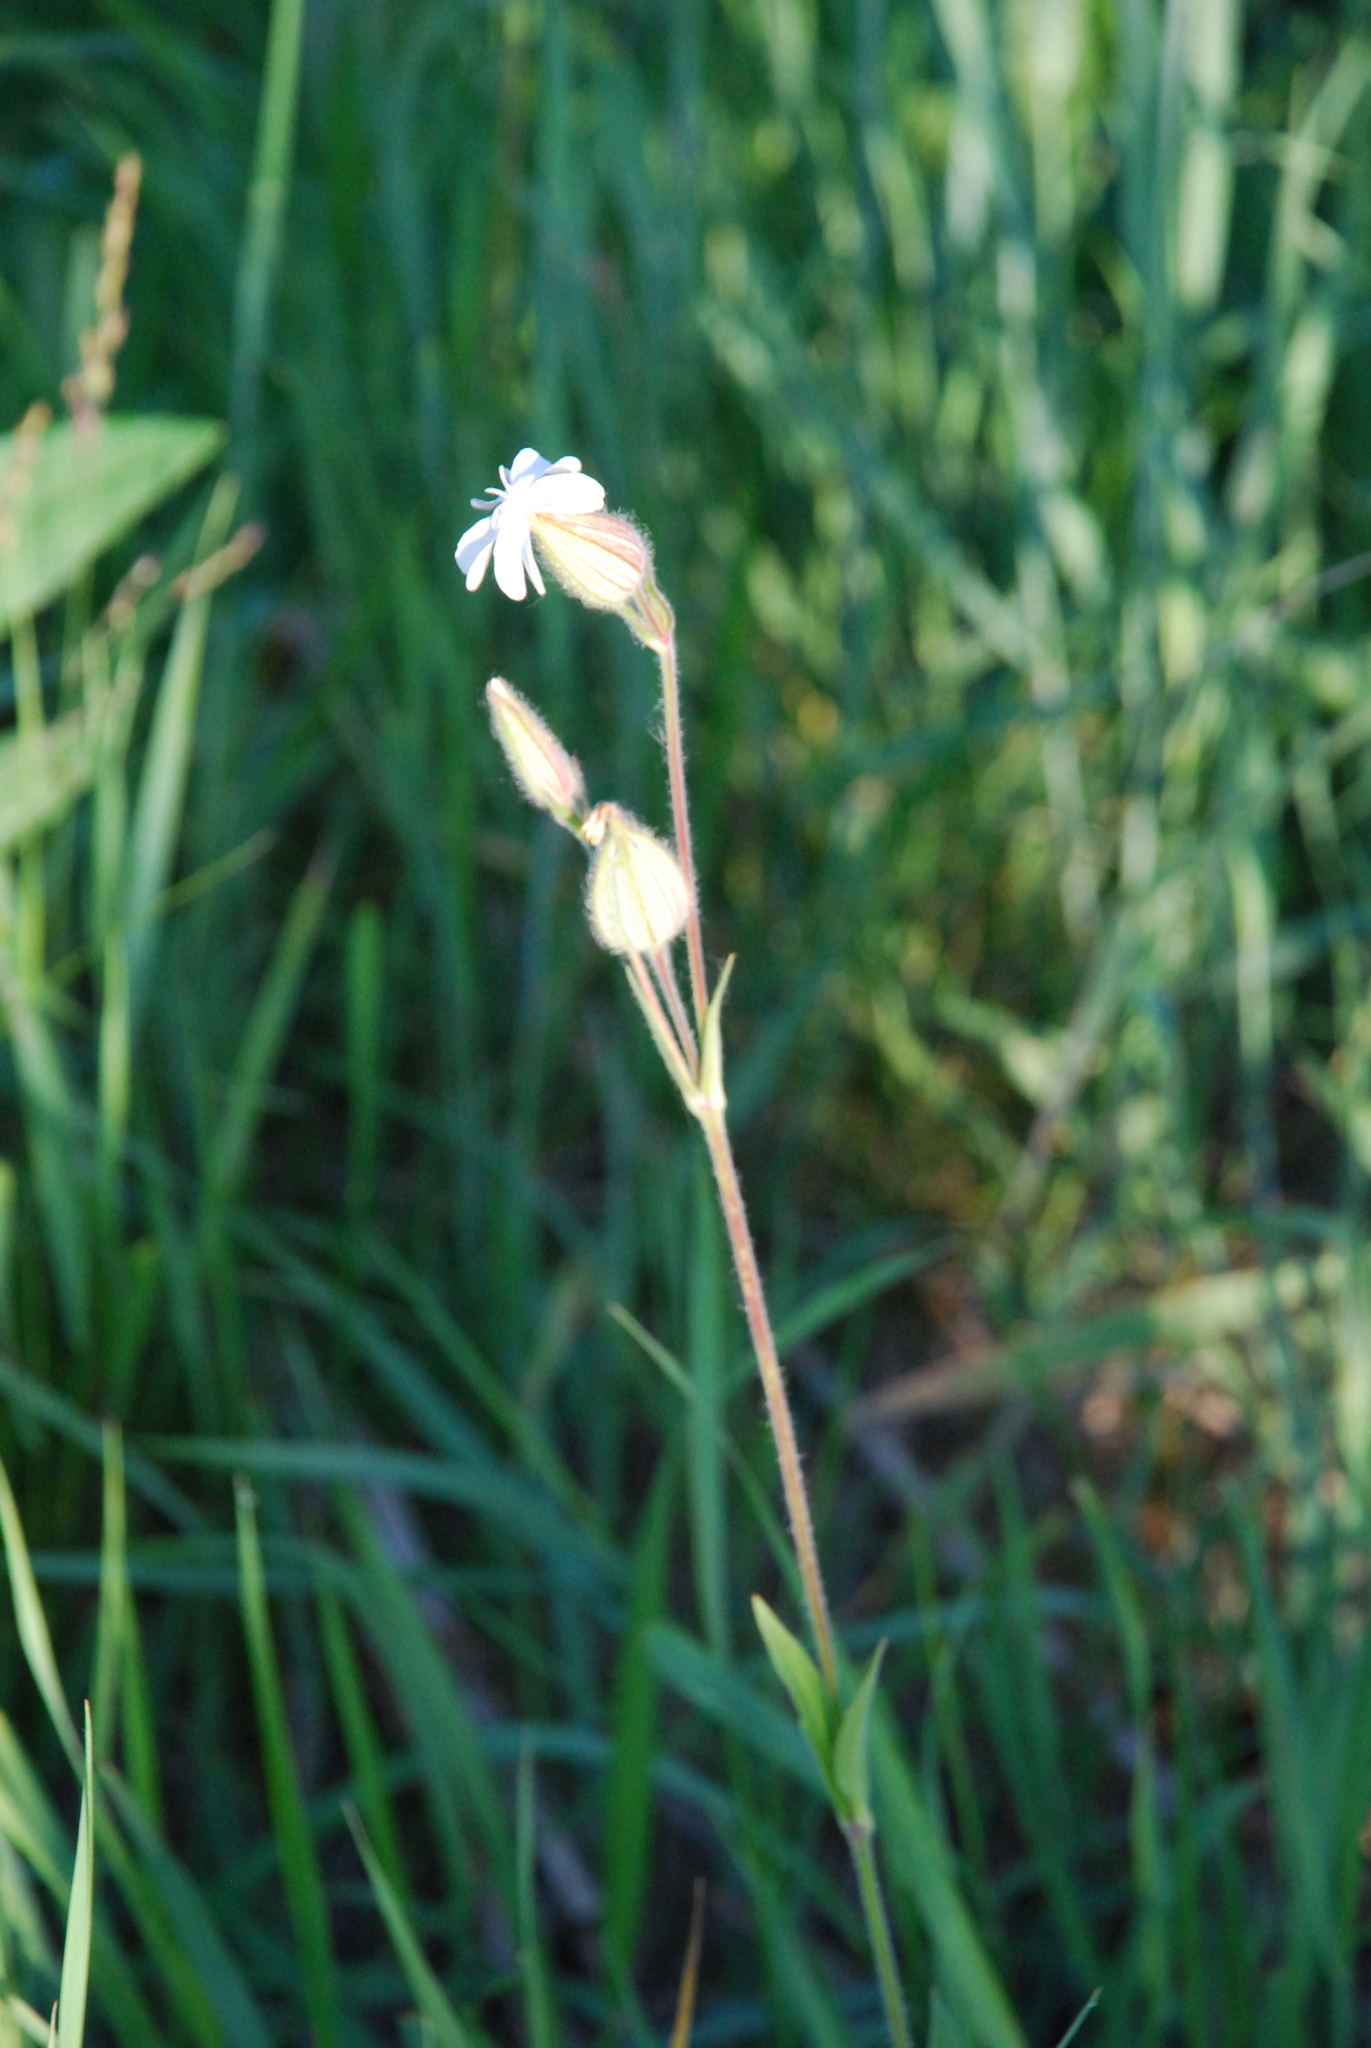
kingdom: Plantae
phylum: Tracheophyta
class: Magnoliopsida
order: Caryophyllales
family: Caryophyllaceae
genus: Silene
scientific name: Silene latifolia
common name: White campion
